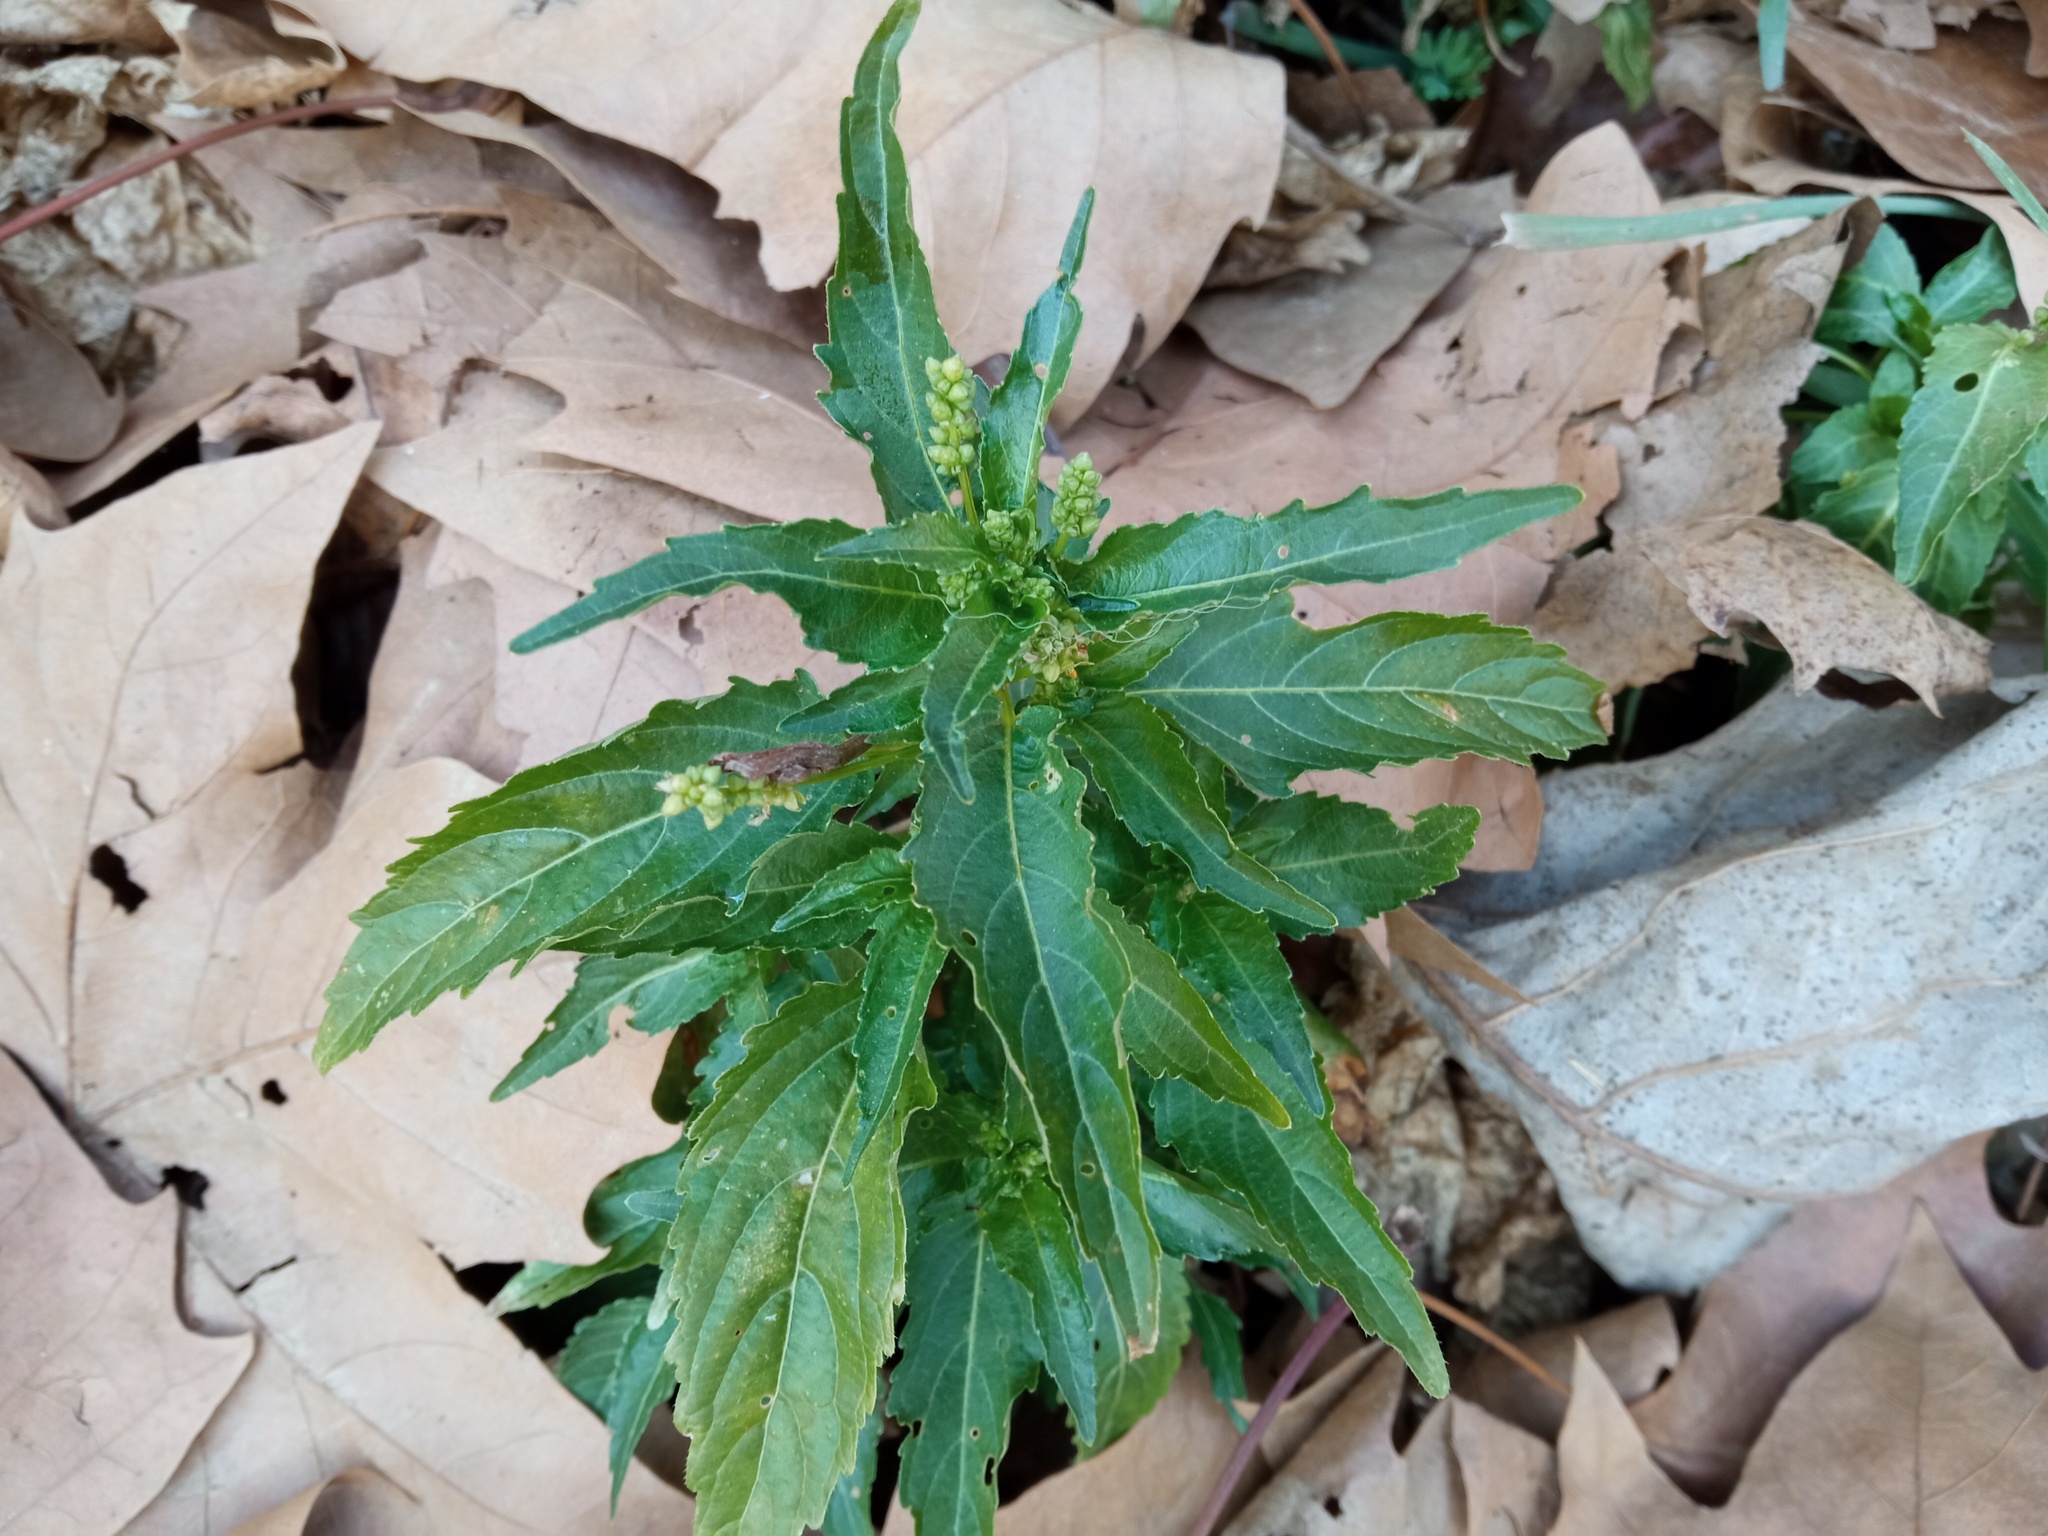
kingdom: Plantae
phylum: Tracheophyta
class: Magnoliopsida
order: Malpighiales
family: Euphorbiaceae
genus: Mercurialis
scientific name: Mercurialis annua
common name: Annual mercury
